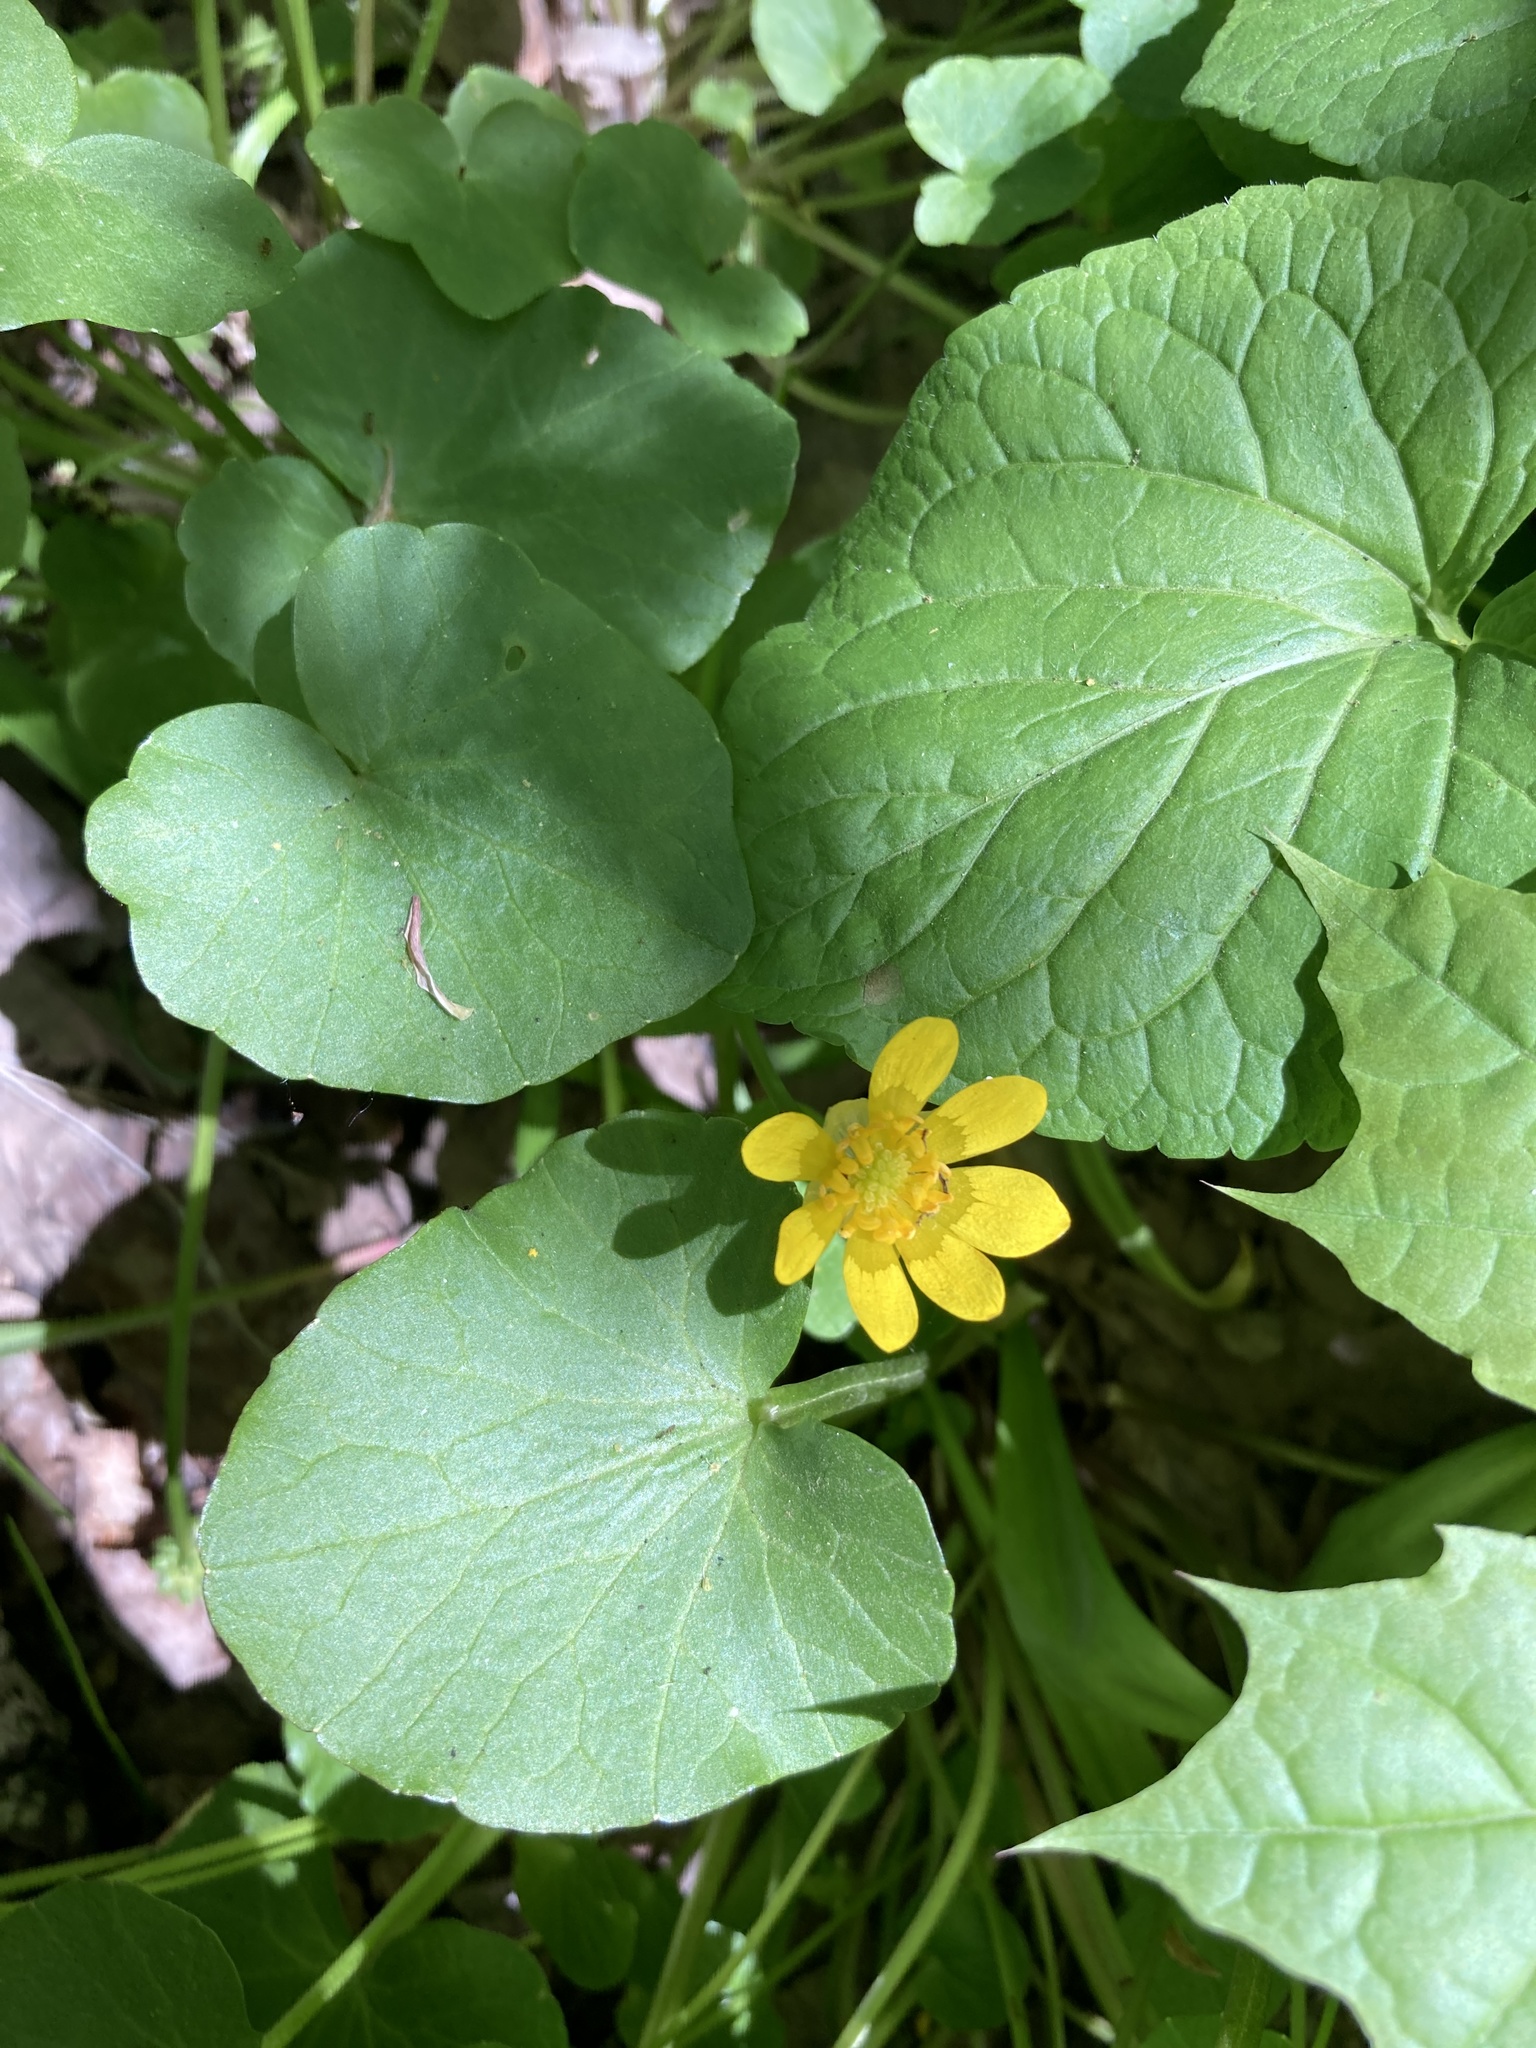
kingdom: Plantae
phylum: Tracheophyta
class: Magnoliopsida
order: Ranunculales
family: Ranunculaceae
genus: Ficaria
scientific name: Ficaria verna
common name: Lesser celandine
